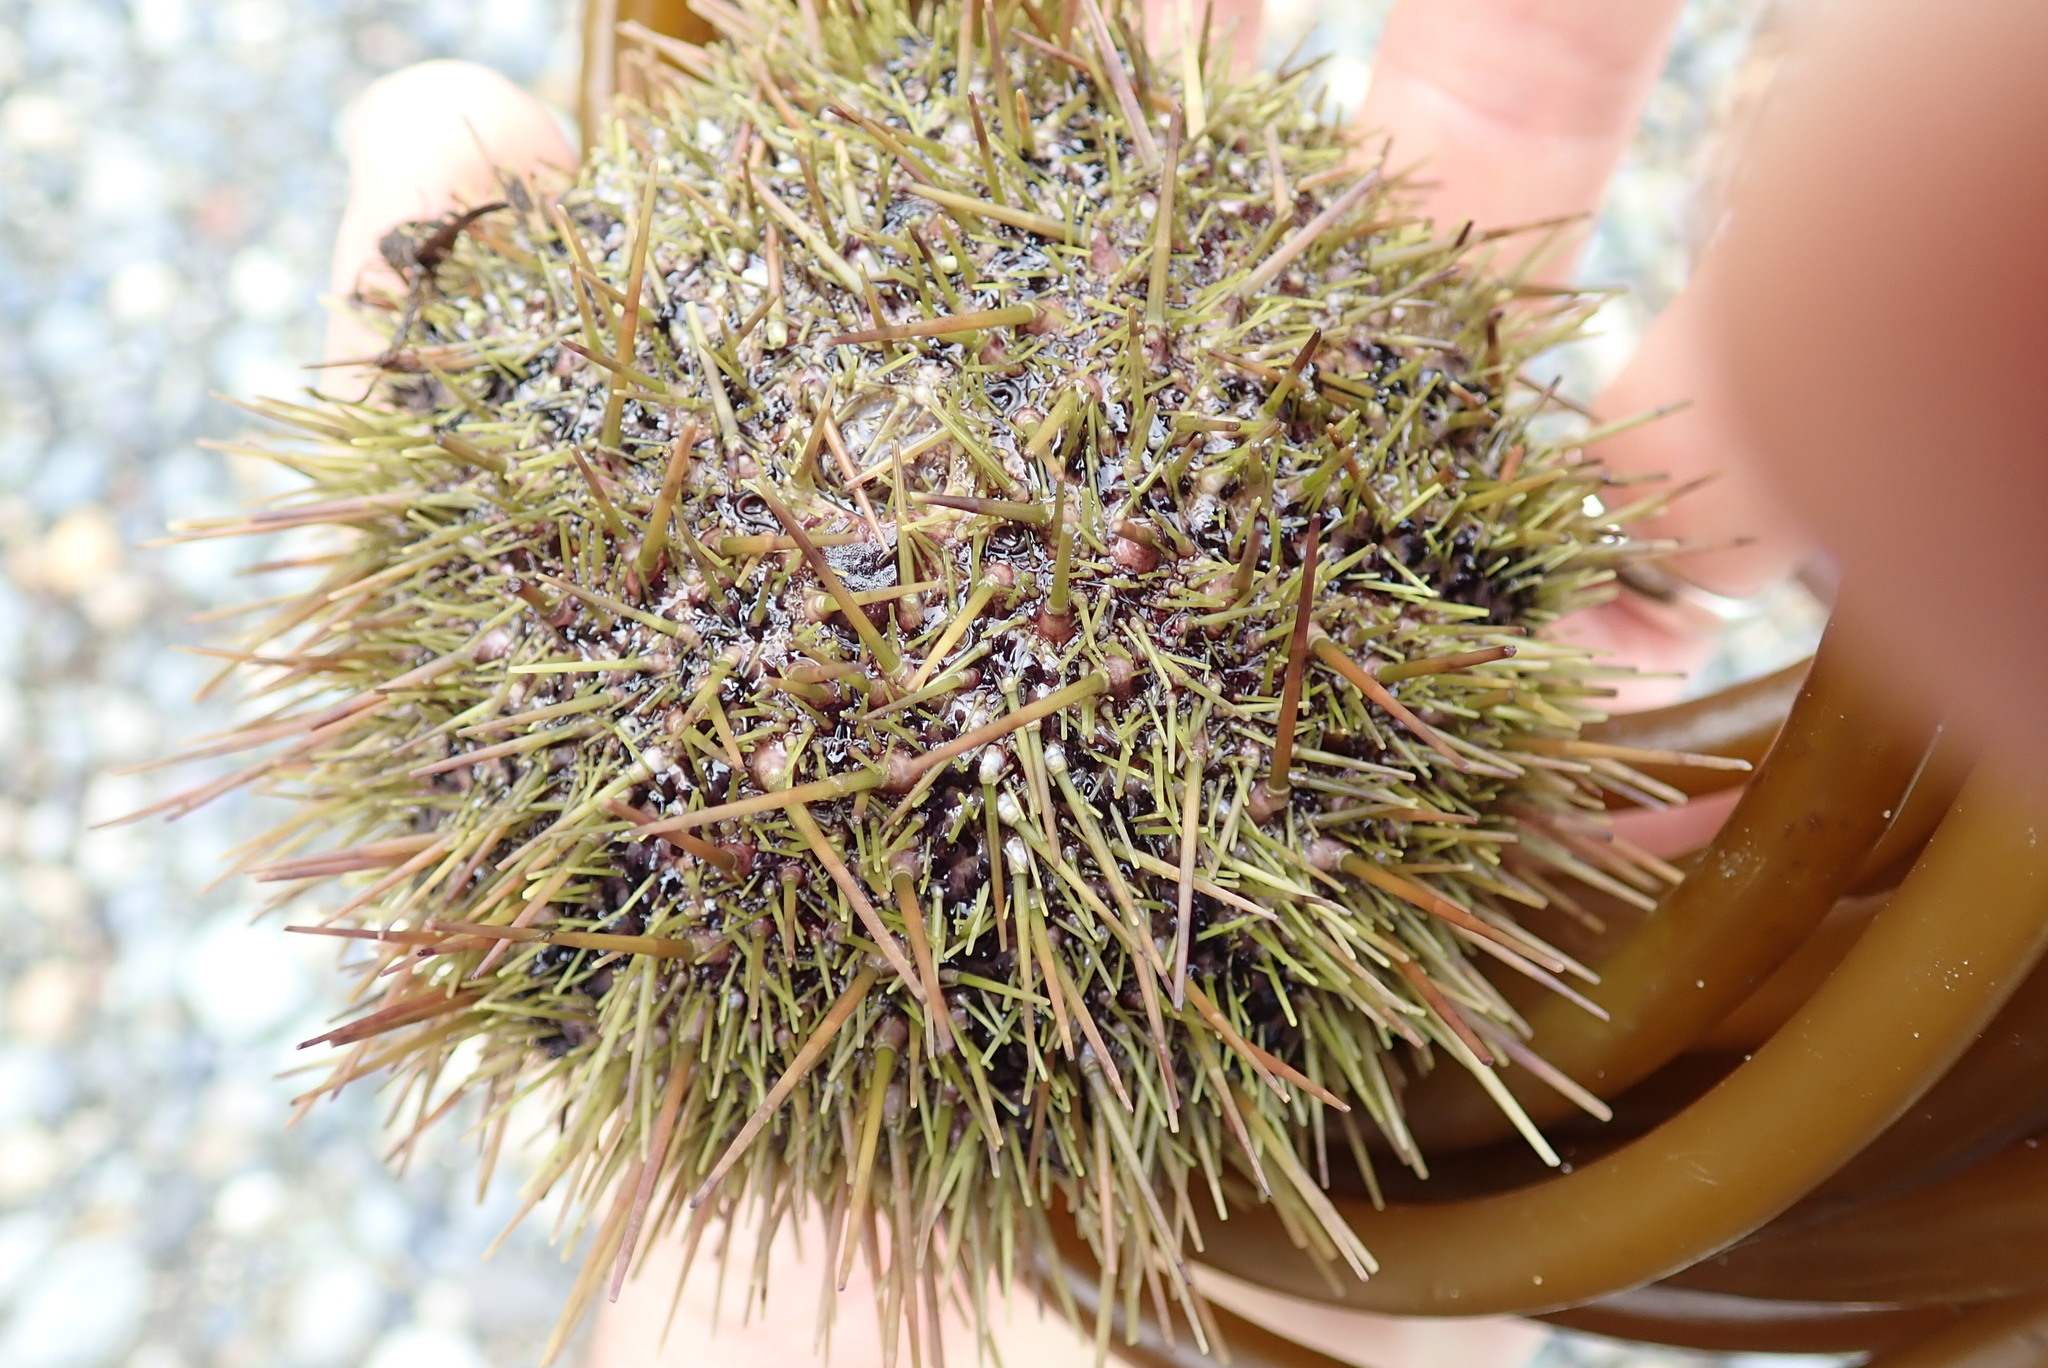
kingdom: Animalia
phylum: Echinodermata
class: Echinoidea
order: Camarodonta
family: Strongylocentrotidae
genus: Strongylocentrotus
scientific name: Strongylocentrotus droebachiensis
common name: Northern sea urchin
